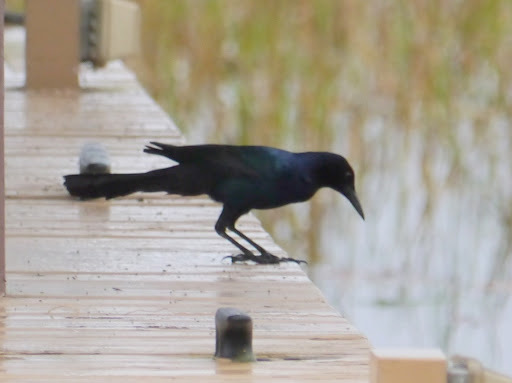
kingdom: Animalia
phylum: Chordata
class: Aves
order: Passeriformes
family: Icteridae
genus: Quiscalus
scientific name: Quiscalus quiscula
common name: Common grackle
